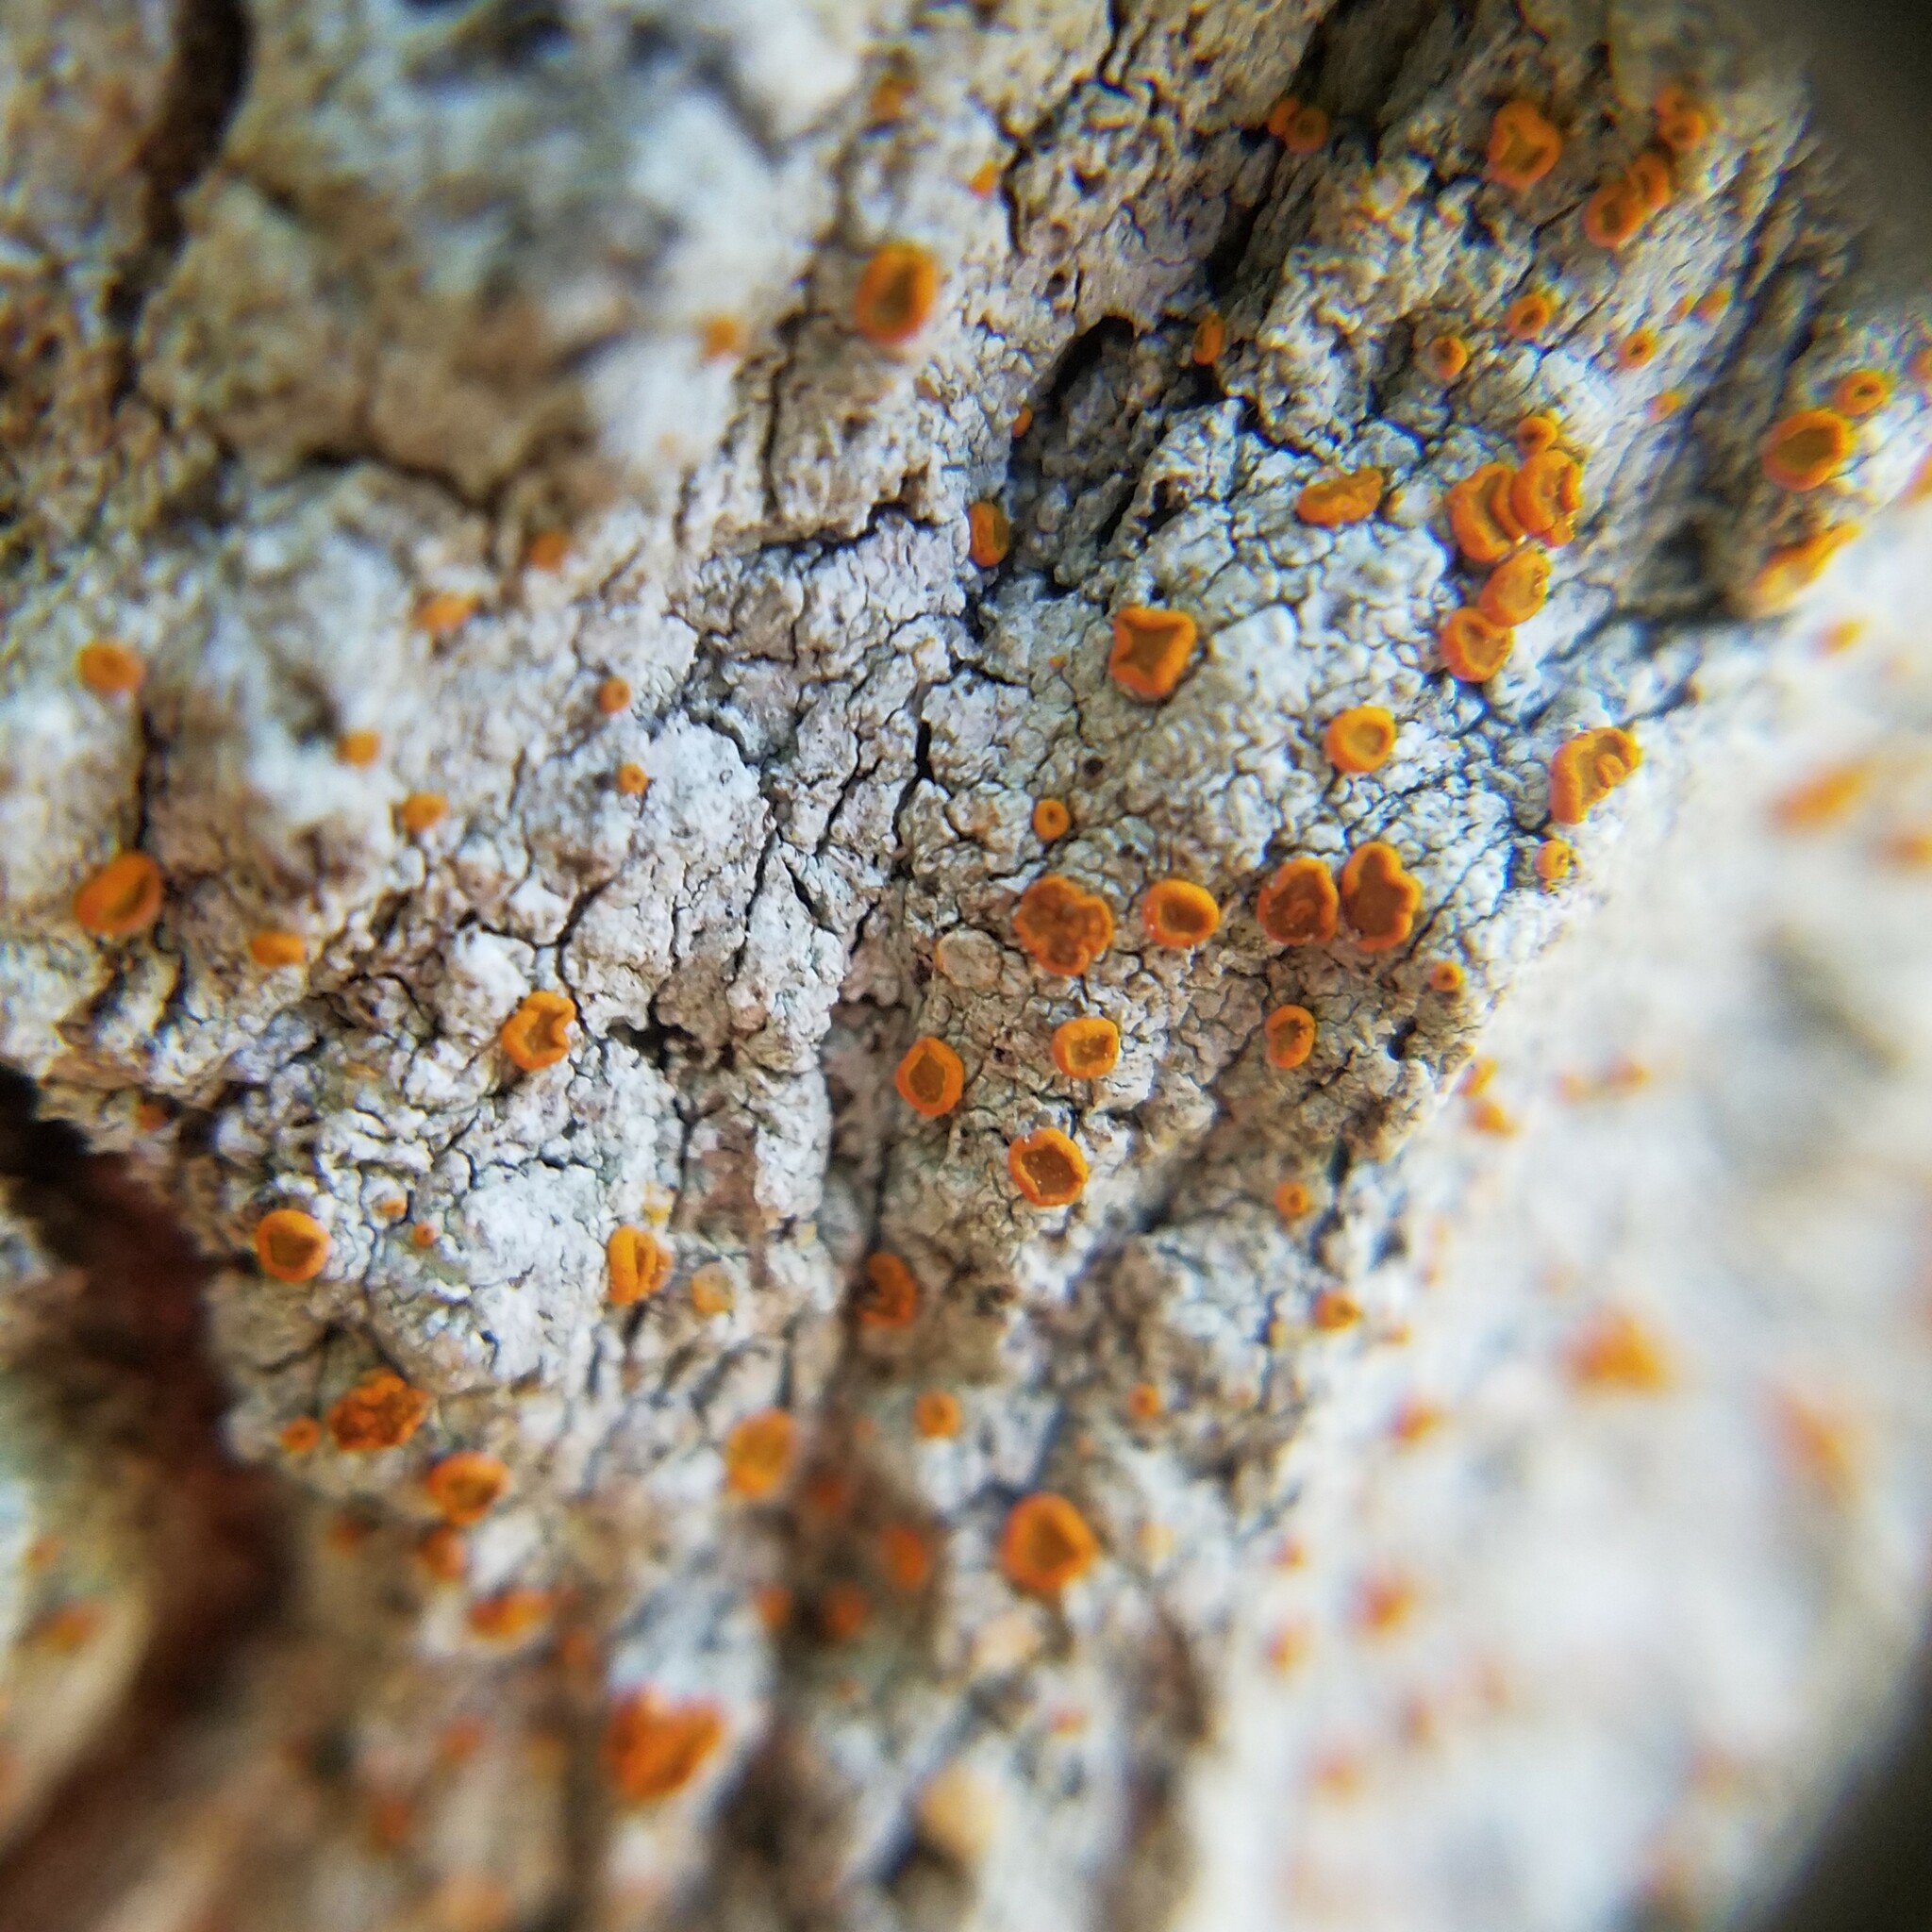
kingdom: Fungi
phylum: Ascomycota
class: Lecanoromycetes
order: Teloschistales
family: Brigantiaeaceae
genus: Brigantiaea
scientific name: Brigantiaea leucoxantha
